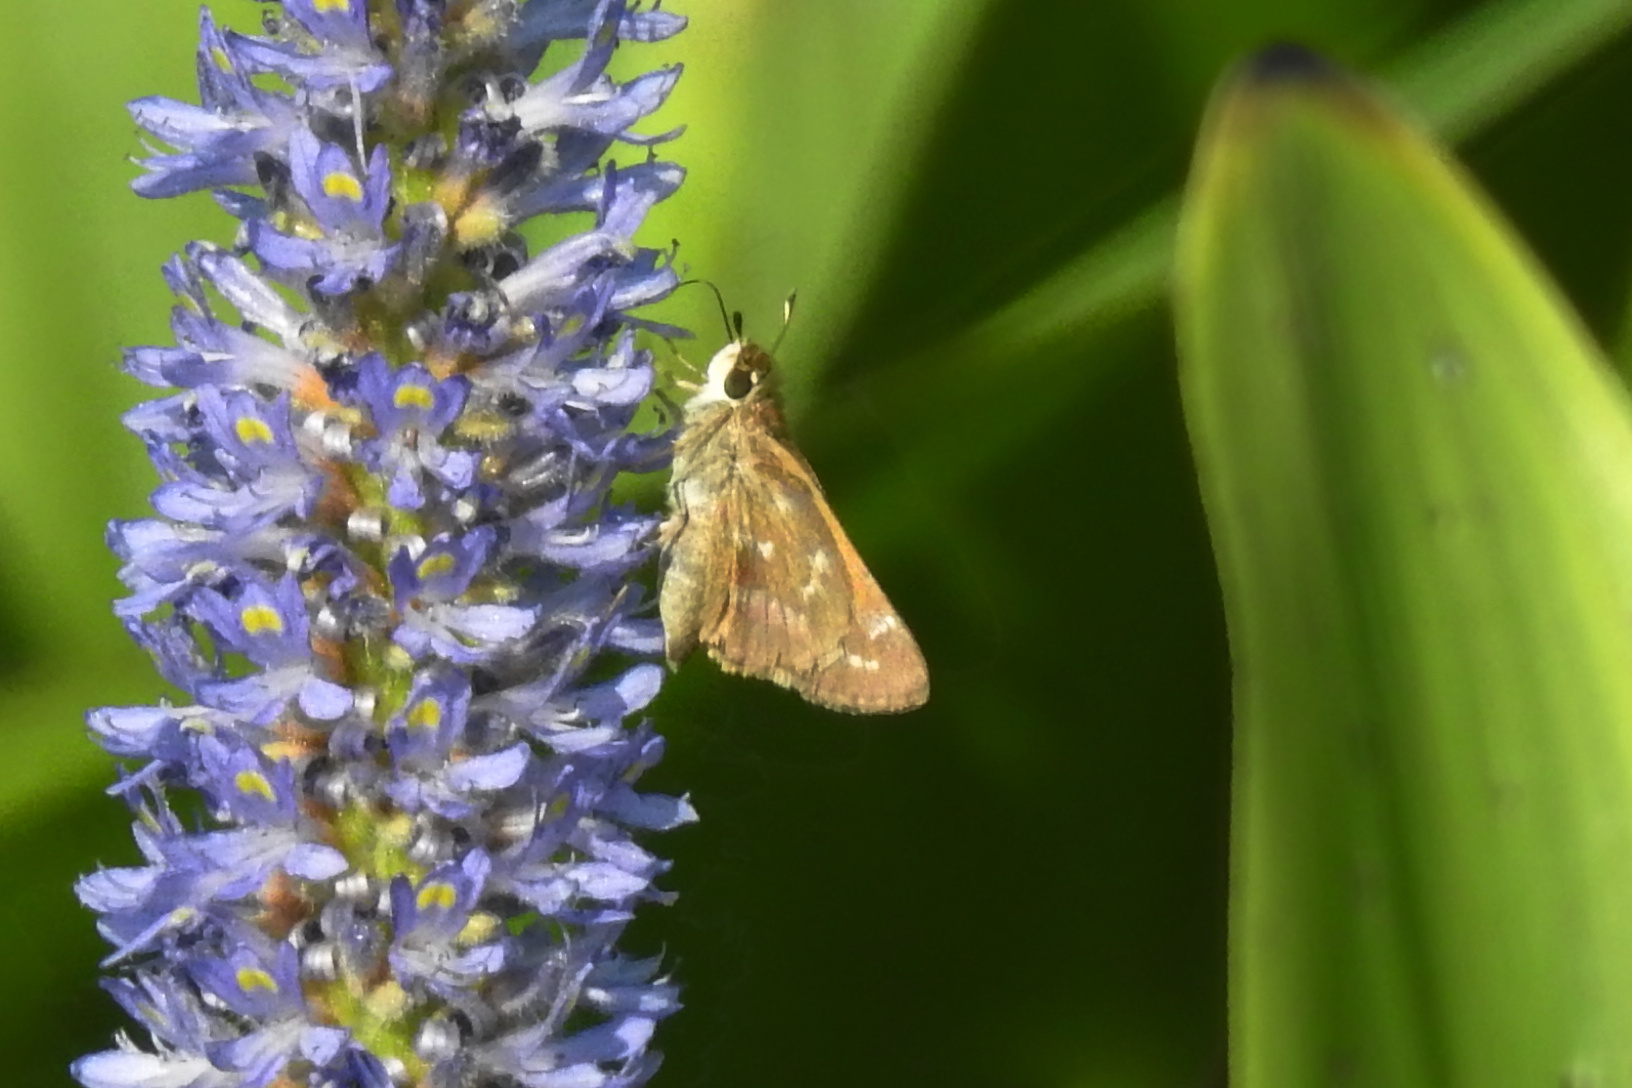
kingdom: Animalia
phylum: Arthropoda
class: Insecta
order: Lepidoptera
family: Hesperiidae
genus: Atalopedes
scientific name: Atalopedes
